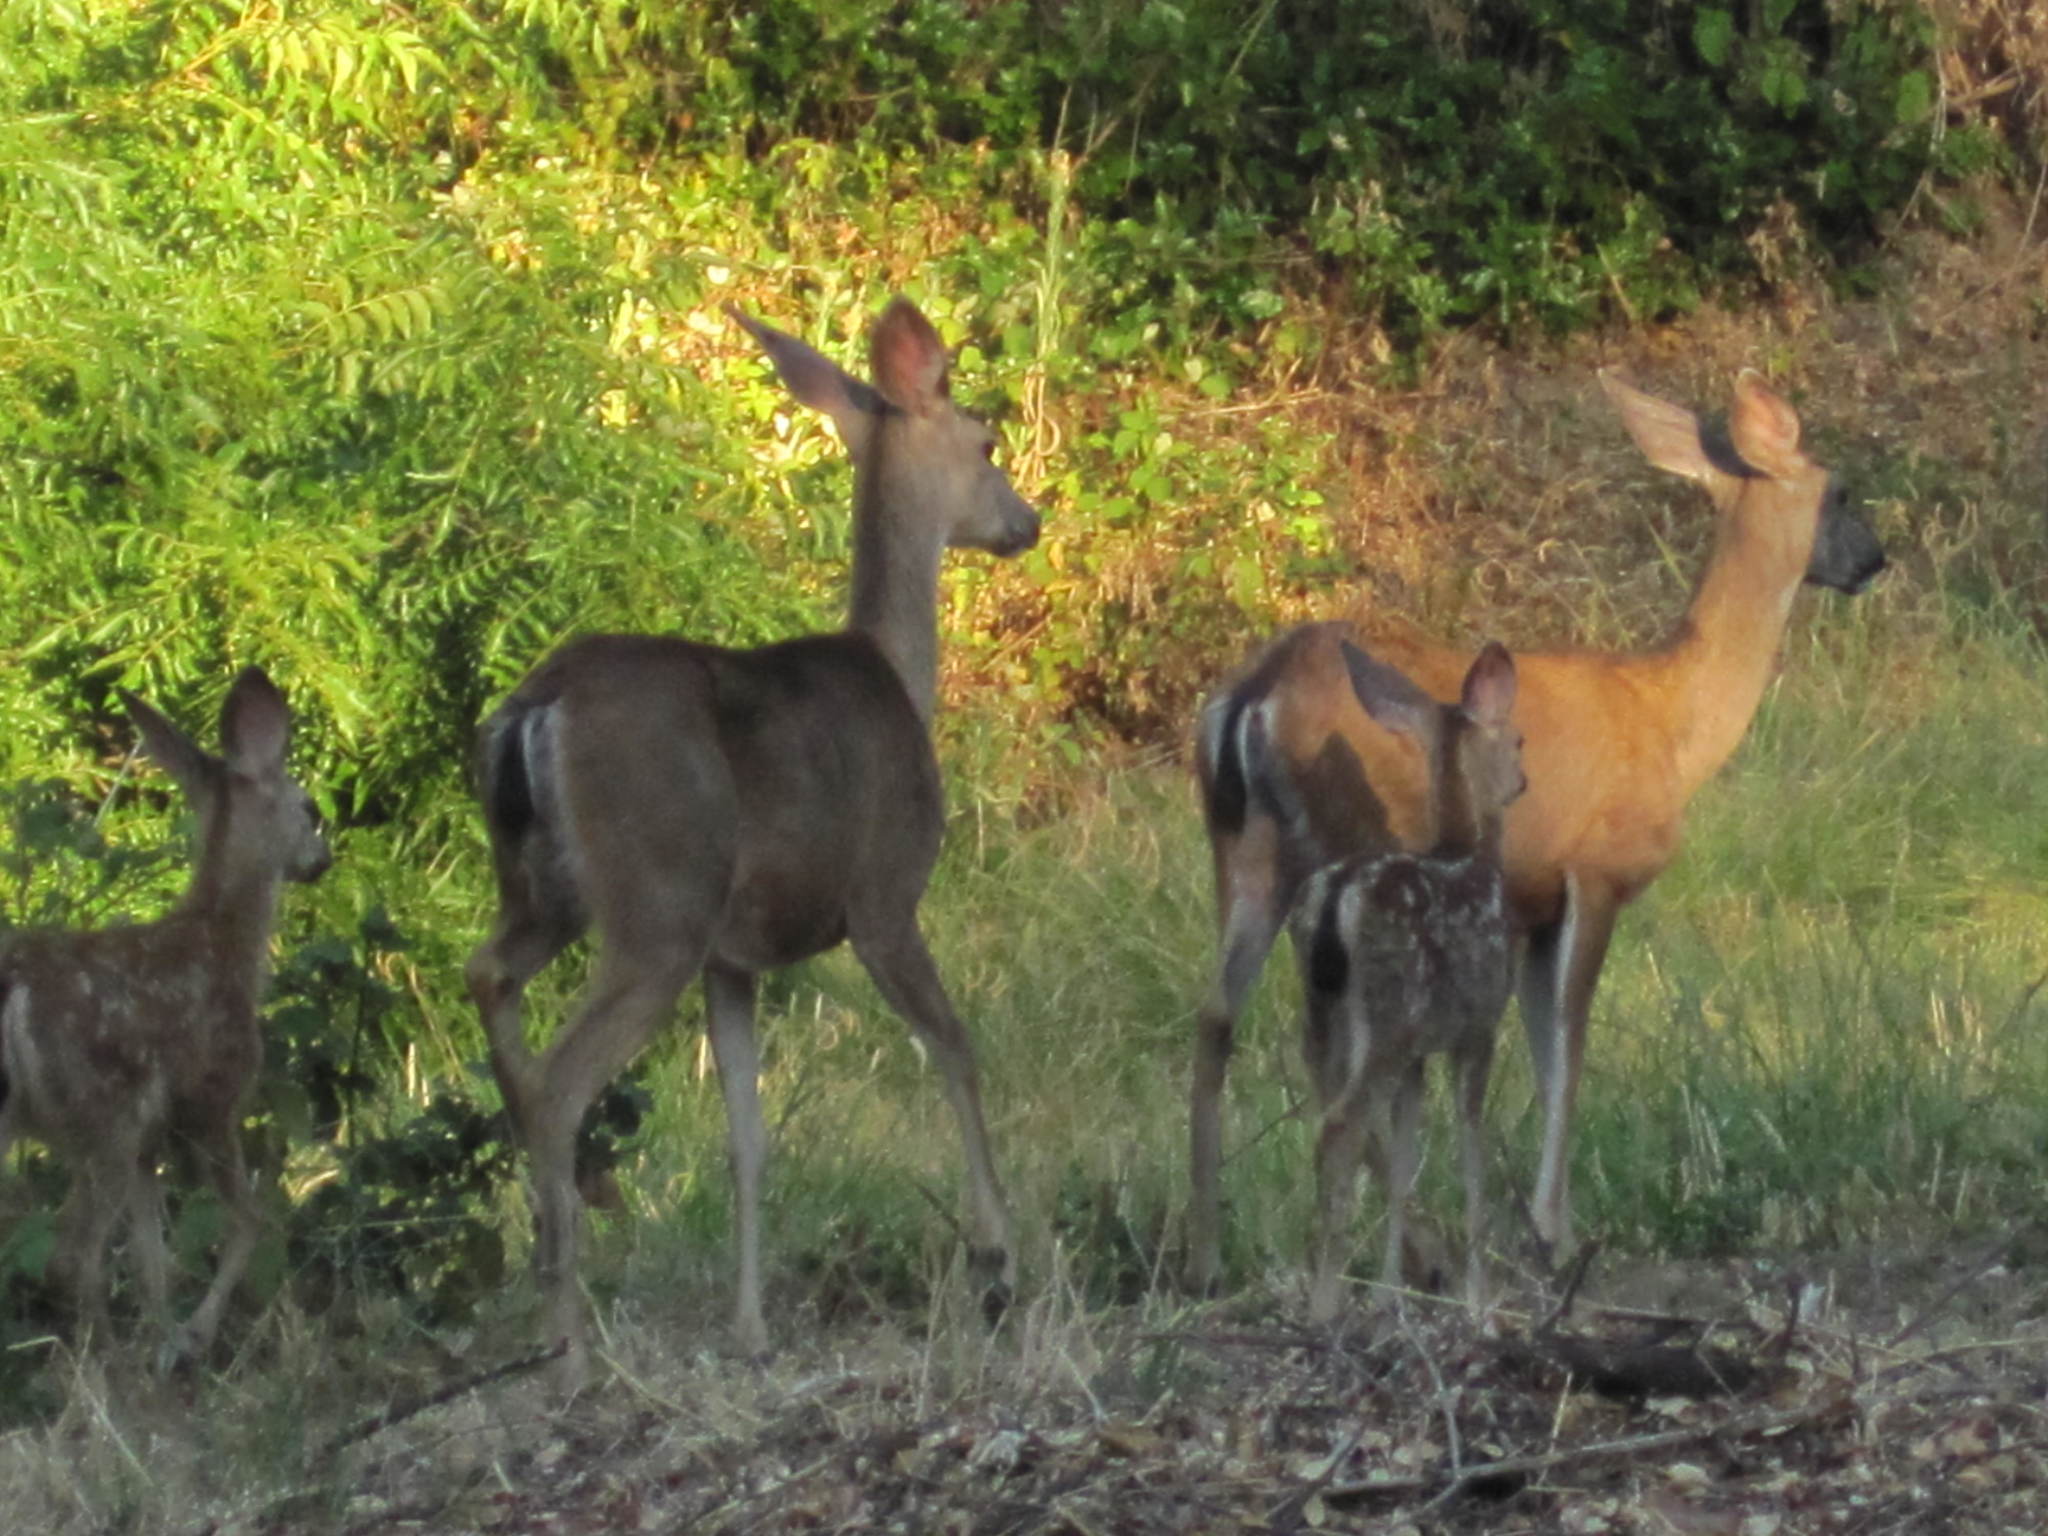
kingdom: Animalia
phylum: Chordata
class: Mammalia
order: Artiodactyla
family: Cervidae
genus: Odocoileus
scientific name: Odocoileus hemionus
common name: Mule deer
